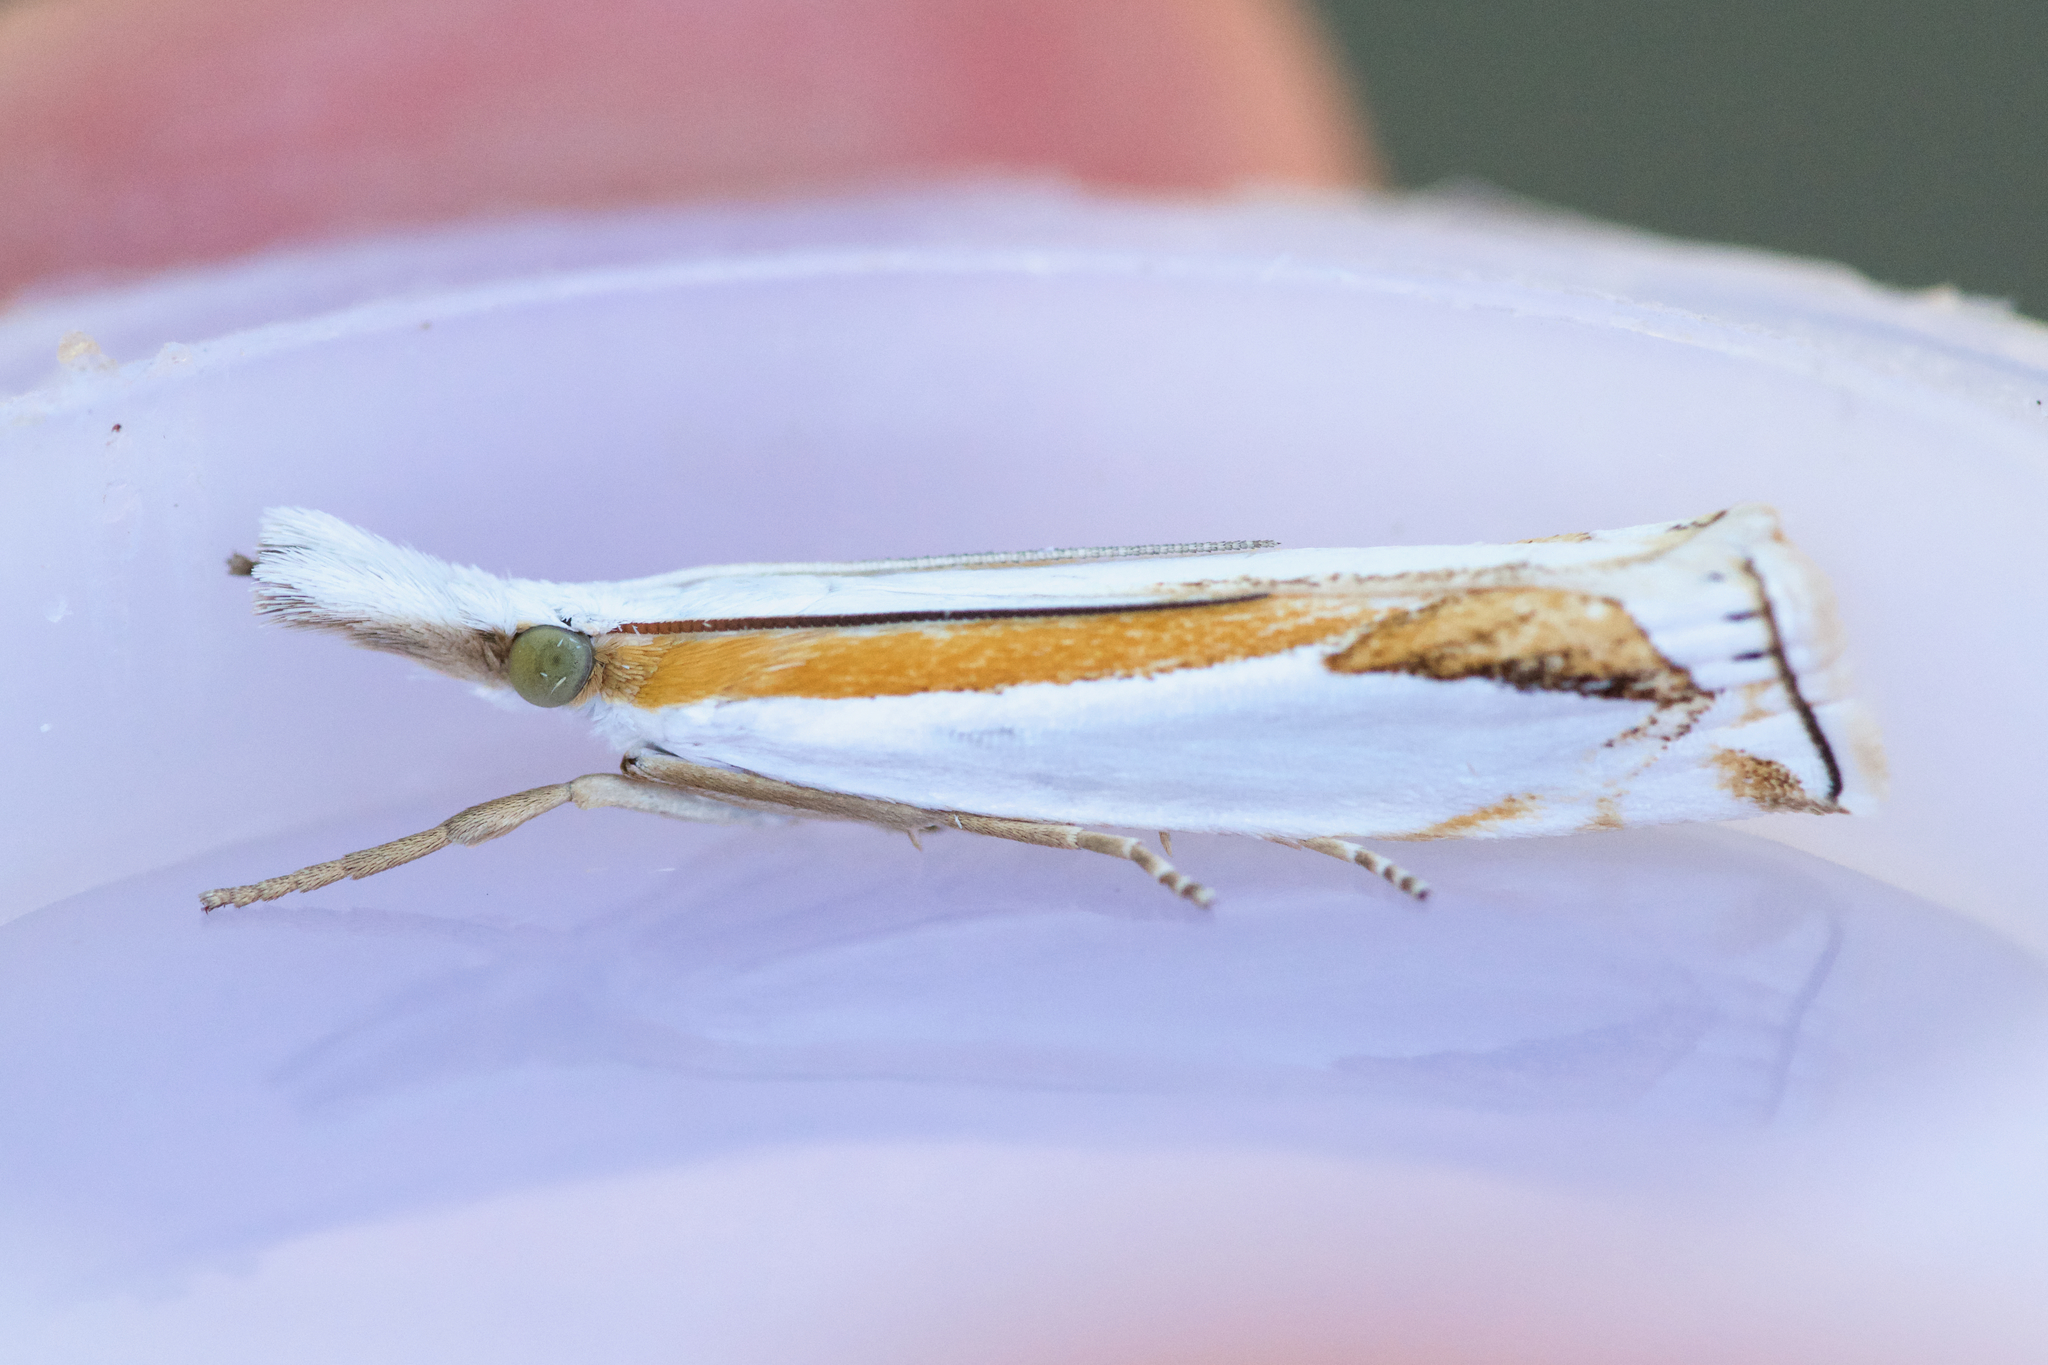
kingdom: Animalia
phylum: Arthropoda
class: Insecta
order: Lepidoptera
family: Crambidae
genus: Crambus
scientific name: Crambus girardellus
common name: Girard's grass-veneer
